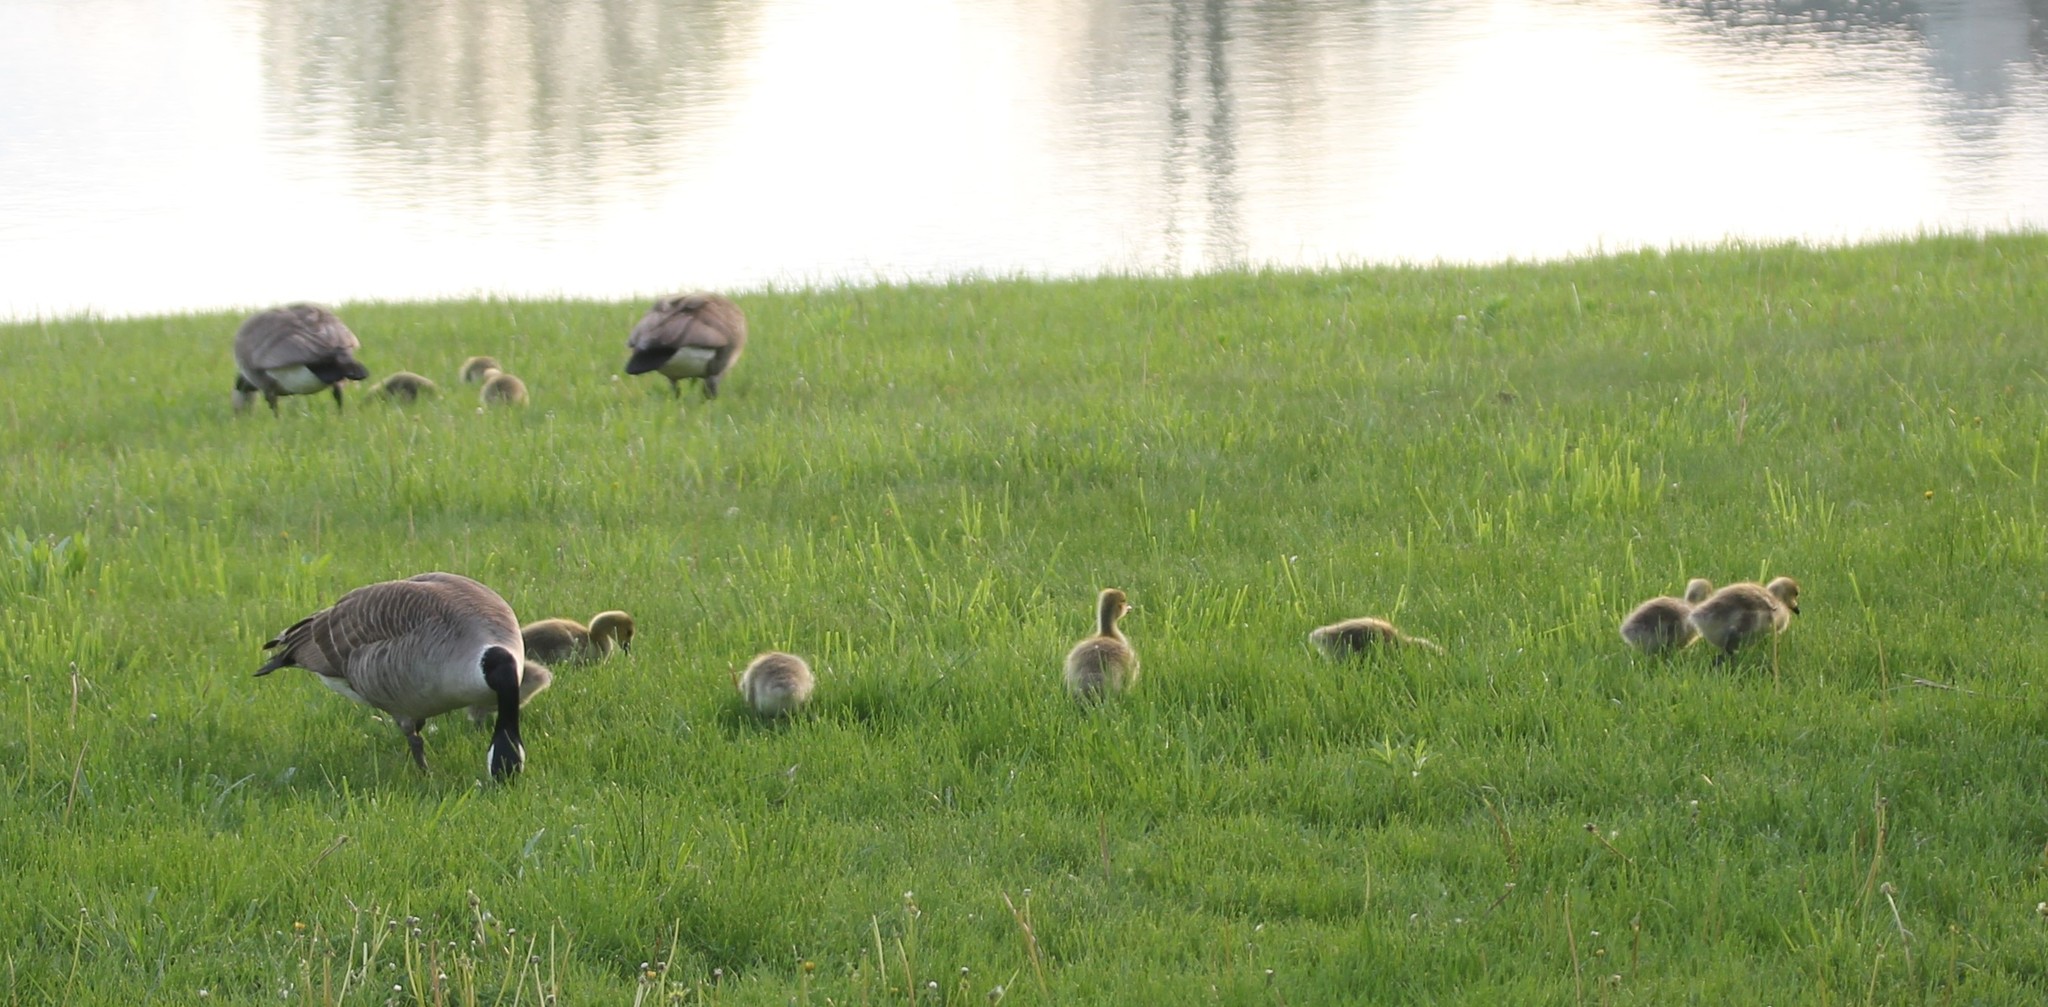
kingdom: Animalia
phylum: Chordata
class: Aves
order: Anseriformes
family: Anatidae
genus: Branta
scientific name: Branta canadensis
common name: Canada goose
